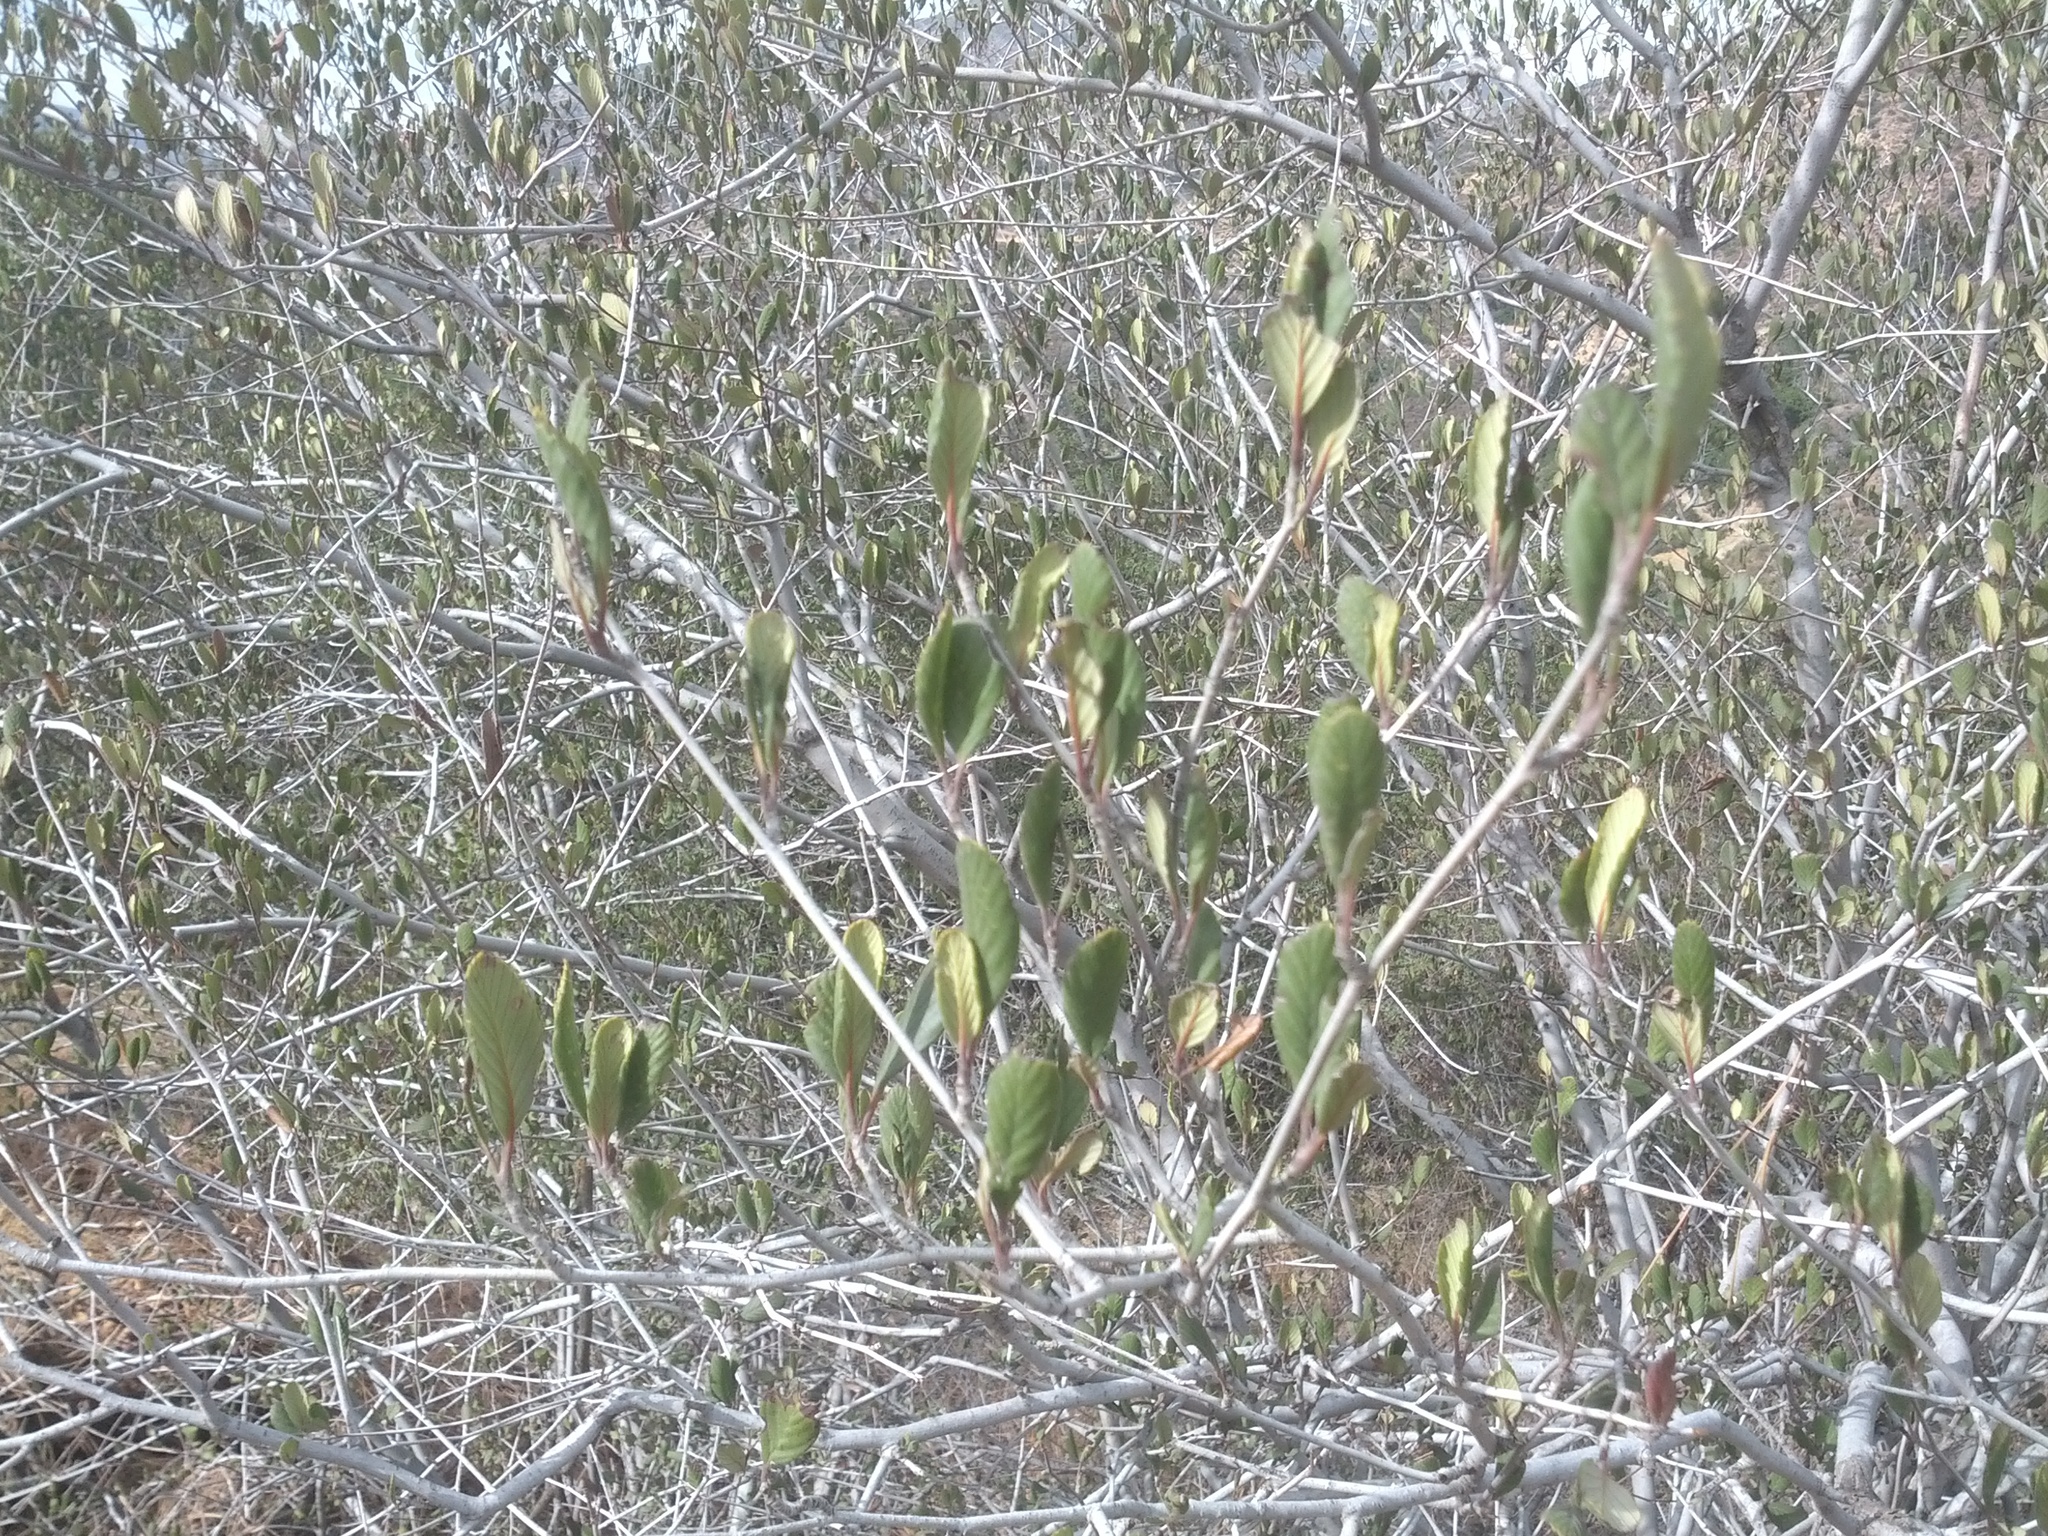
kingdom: Plantae
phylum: Tracheophyta
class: Magnoliopsida
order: Rosales
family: Rosaceae
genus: Cercocarpus
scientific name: Cercocarpus betuloides
